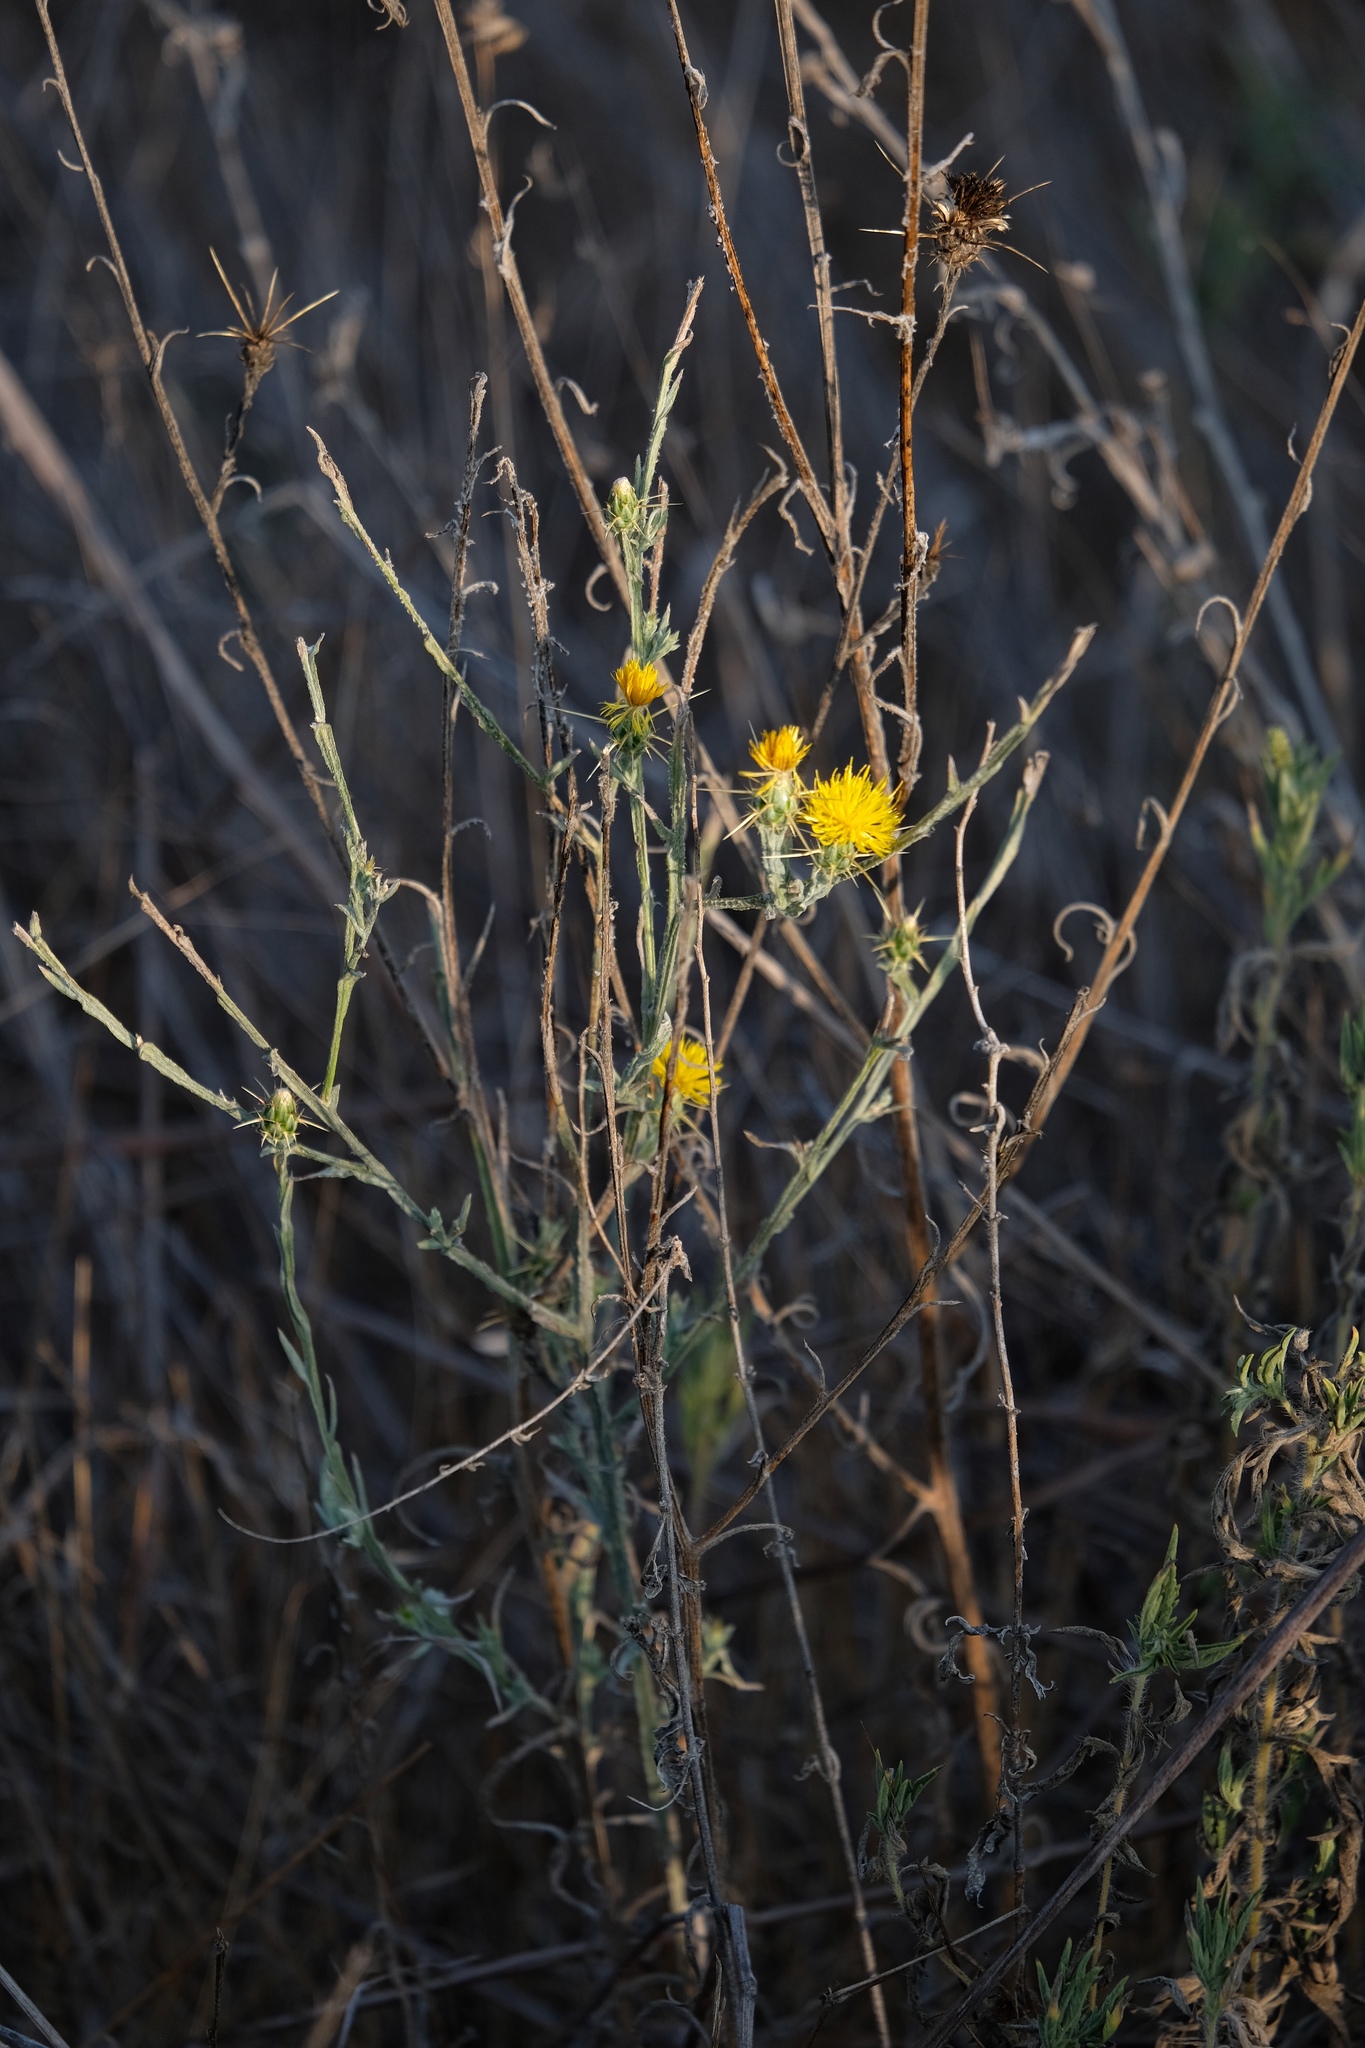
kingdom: Plantae
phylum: Tracheophyta
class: Magnoliopsida
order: Asterales
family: Asteraceae
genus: Centaurea
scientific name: Centaurea solstitialis
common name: Yellow star-thistle
